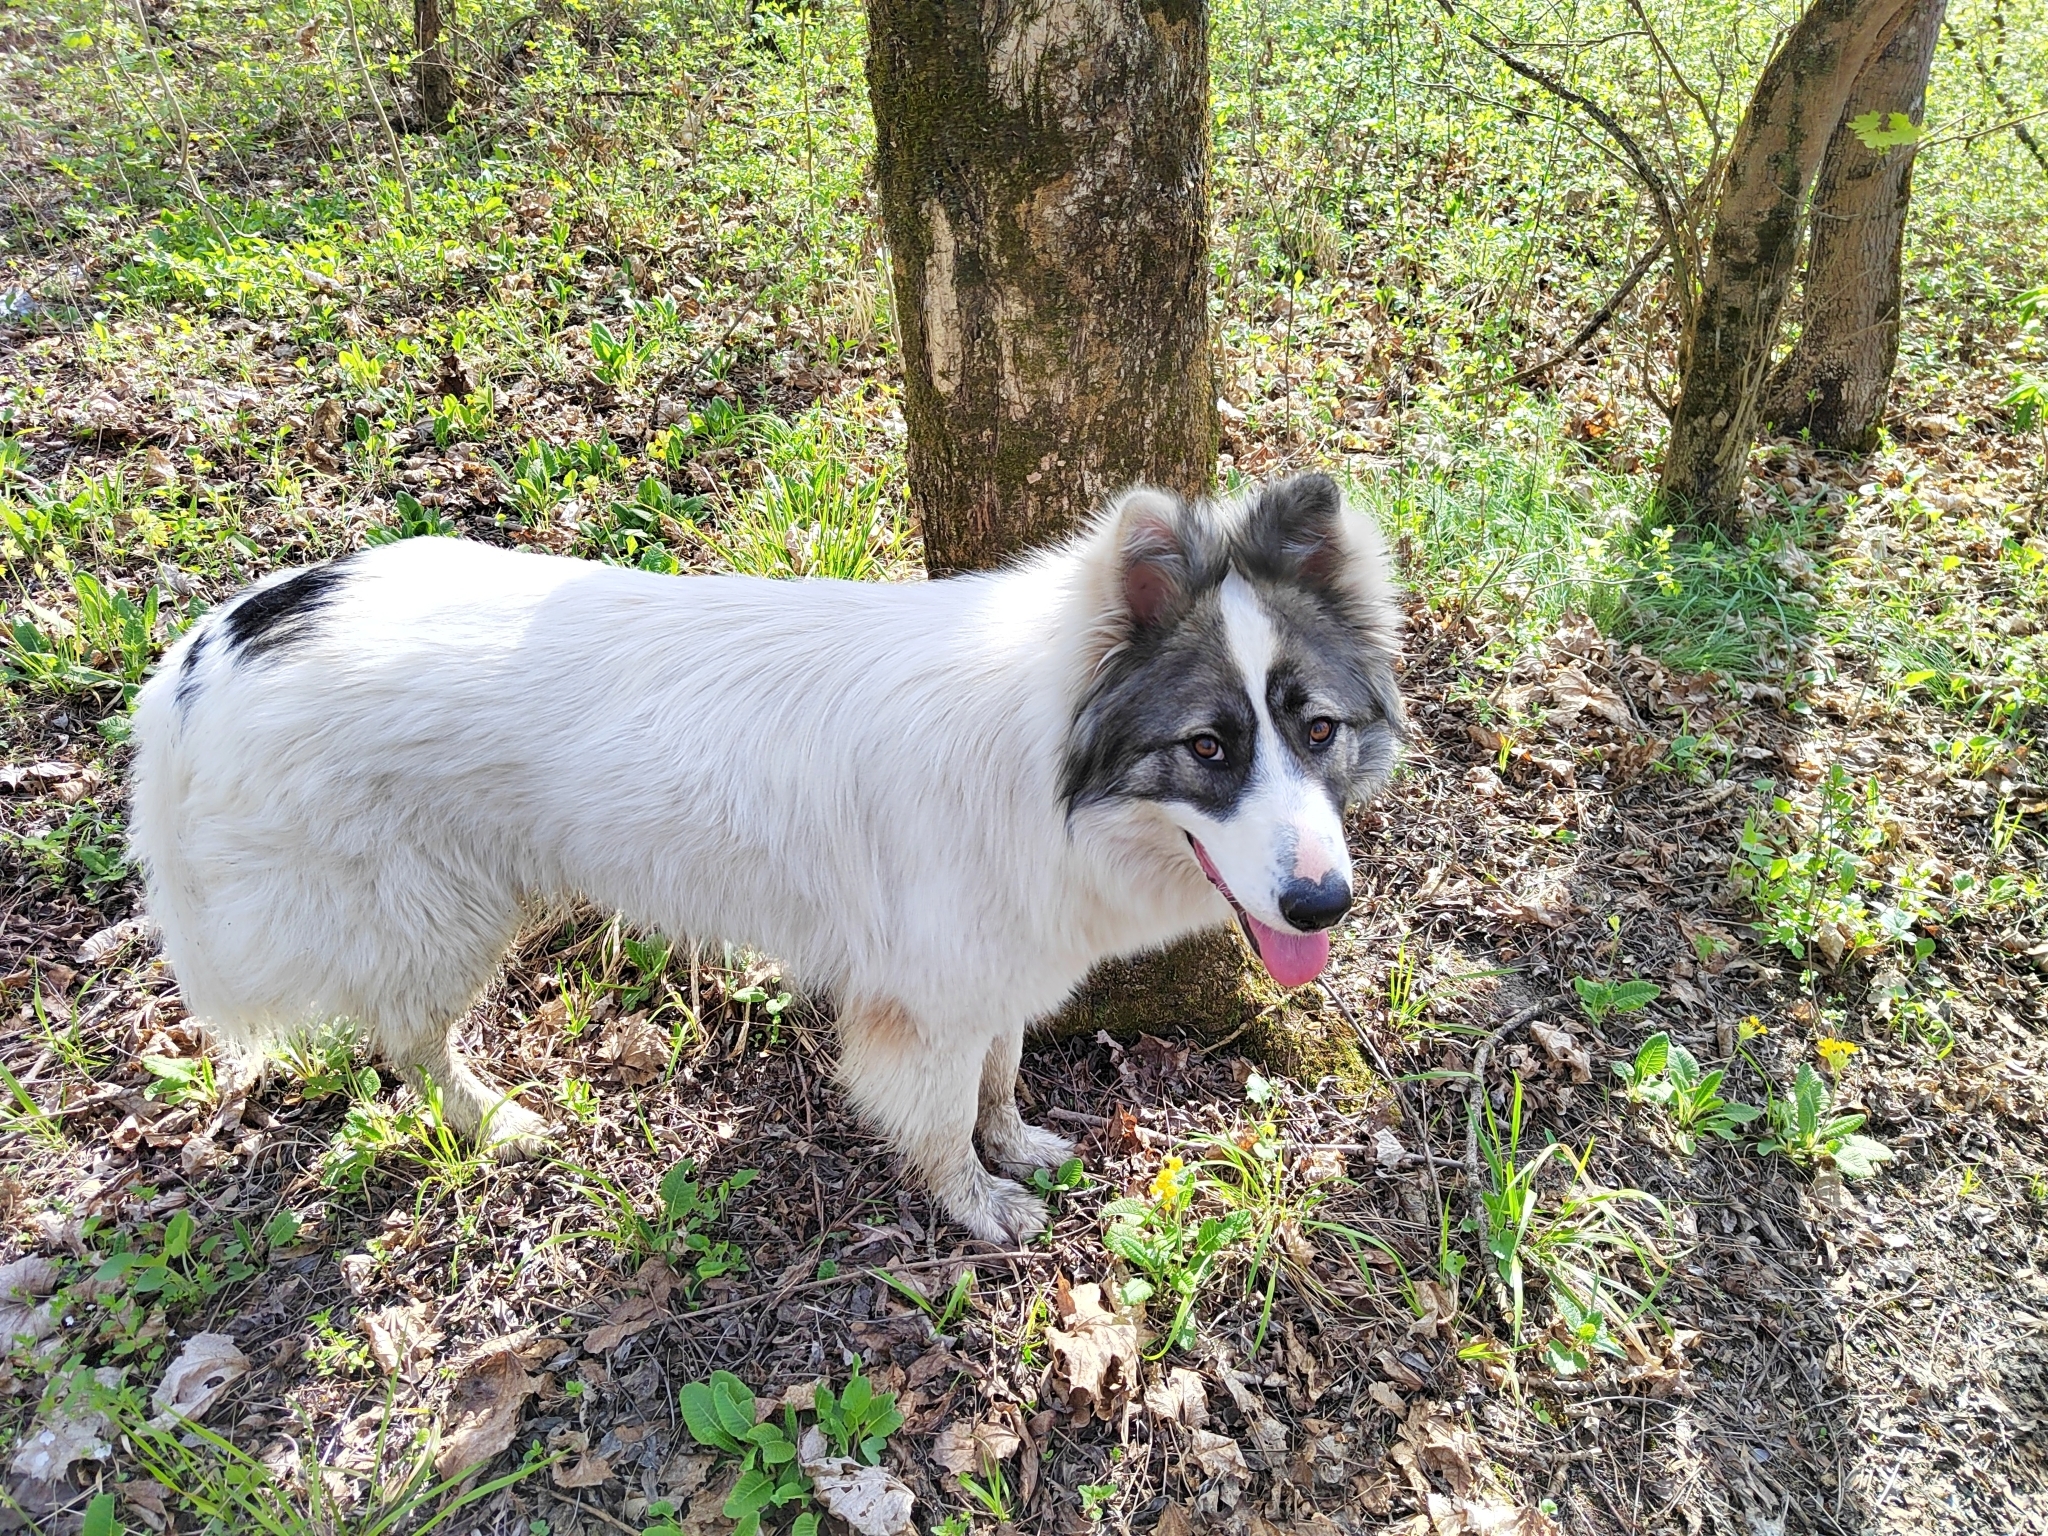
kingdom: Animalia
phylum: Chordata
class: Mammalia
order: Carnivora
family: Canidae
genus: Canis
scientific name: Canis lupus
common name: Gray wolf
